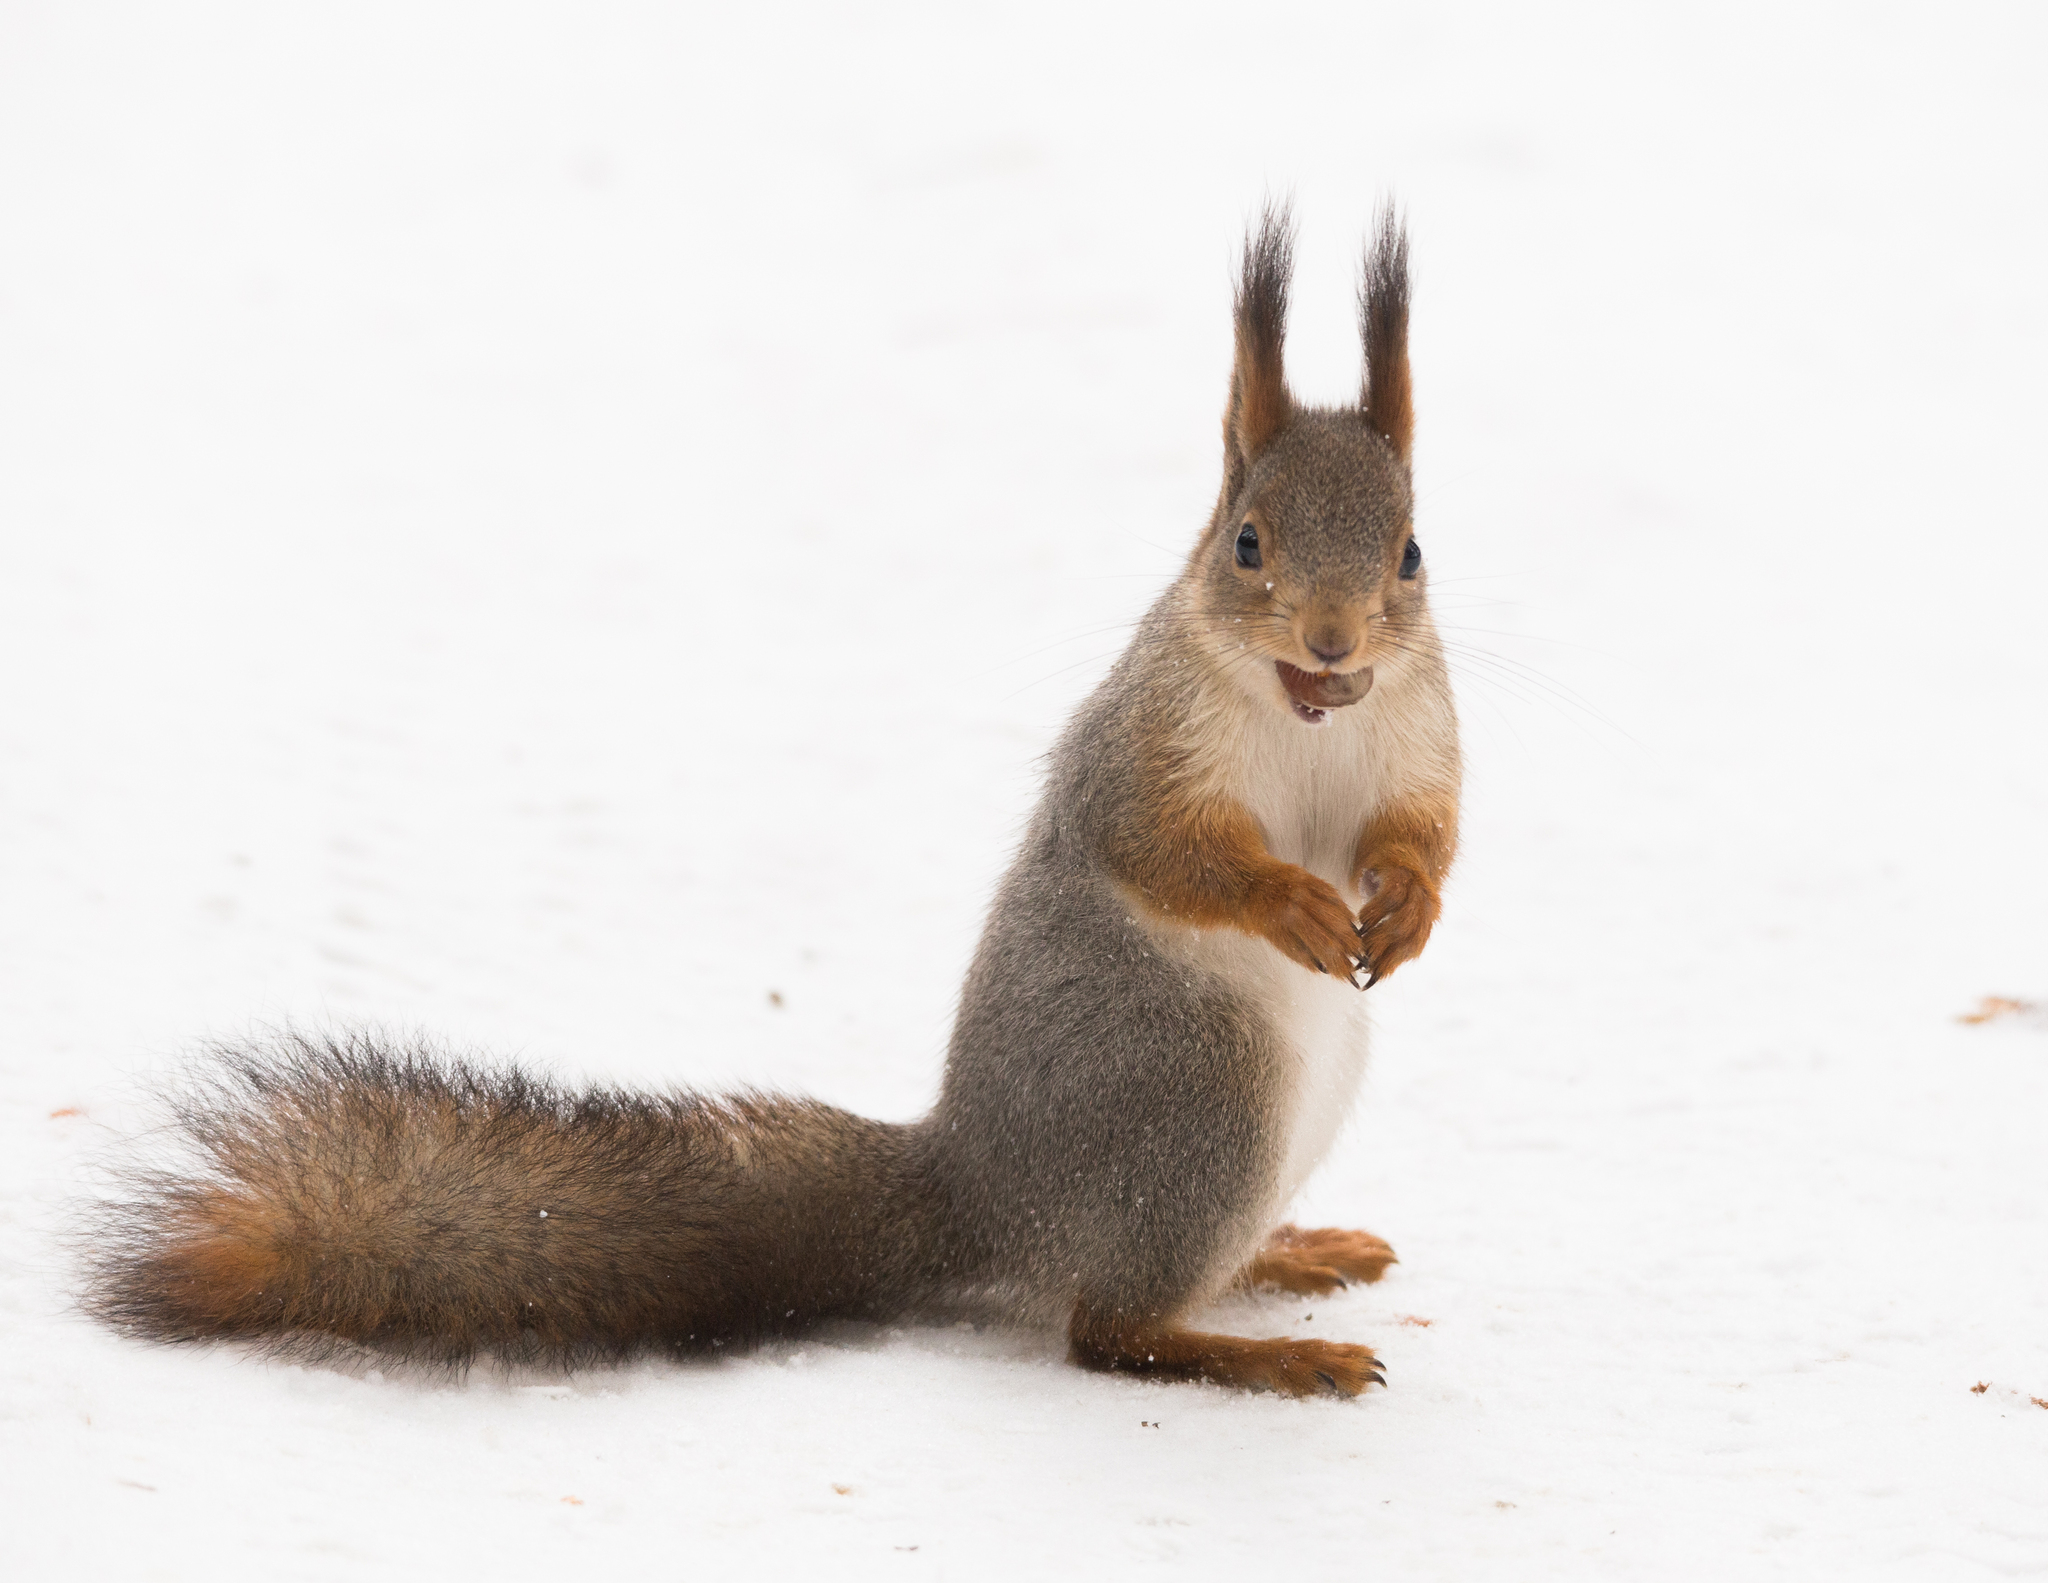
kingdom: Animalia
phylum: Chordata
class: Mammalia
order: Rodentia
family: Sciuridae
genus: Sciurus
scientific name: Sciurus vulgaris
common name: Eurasian red squirrel
